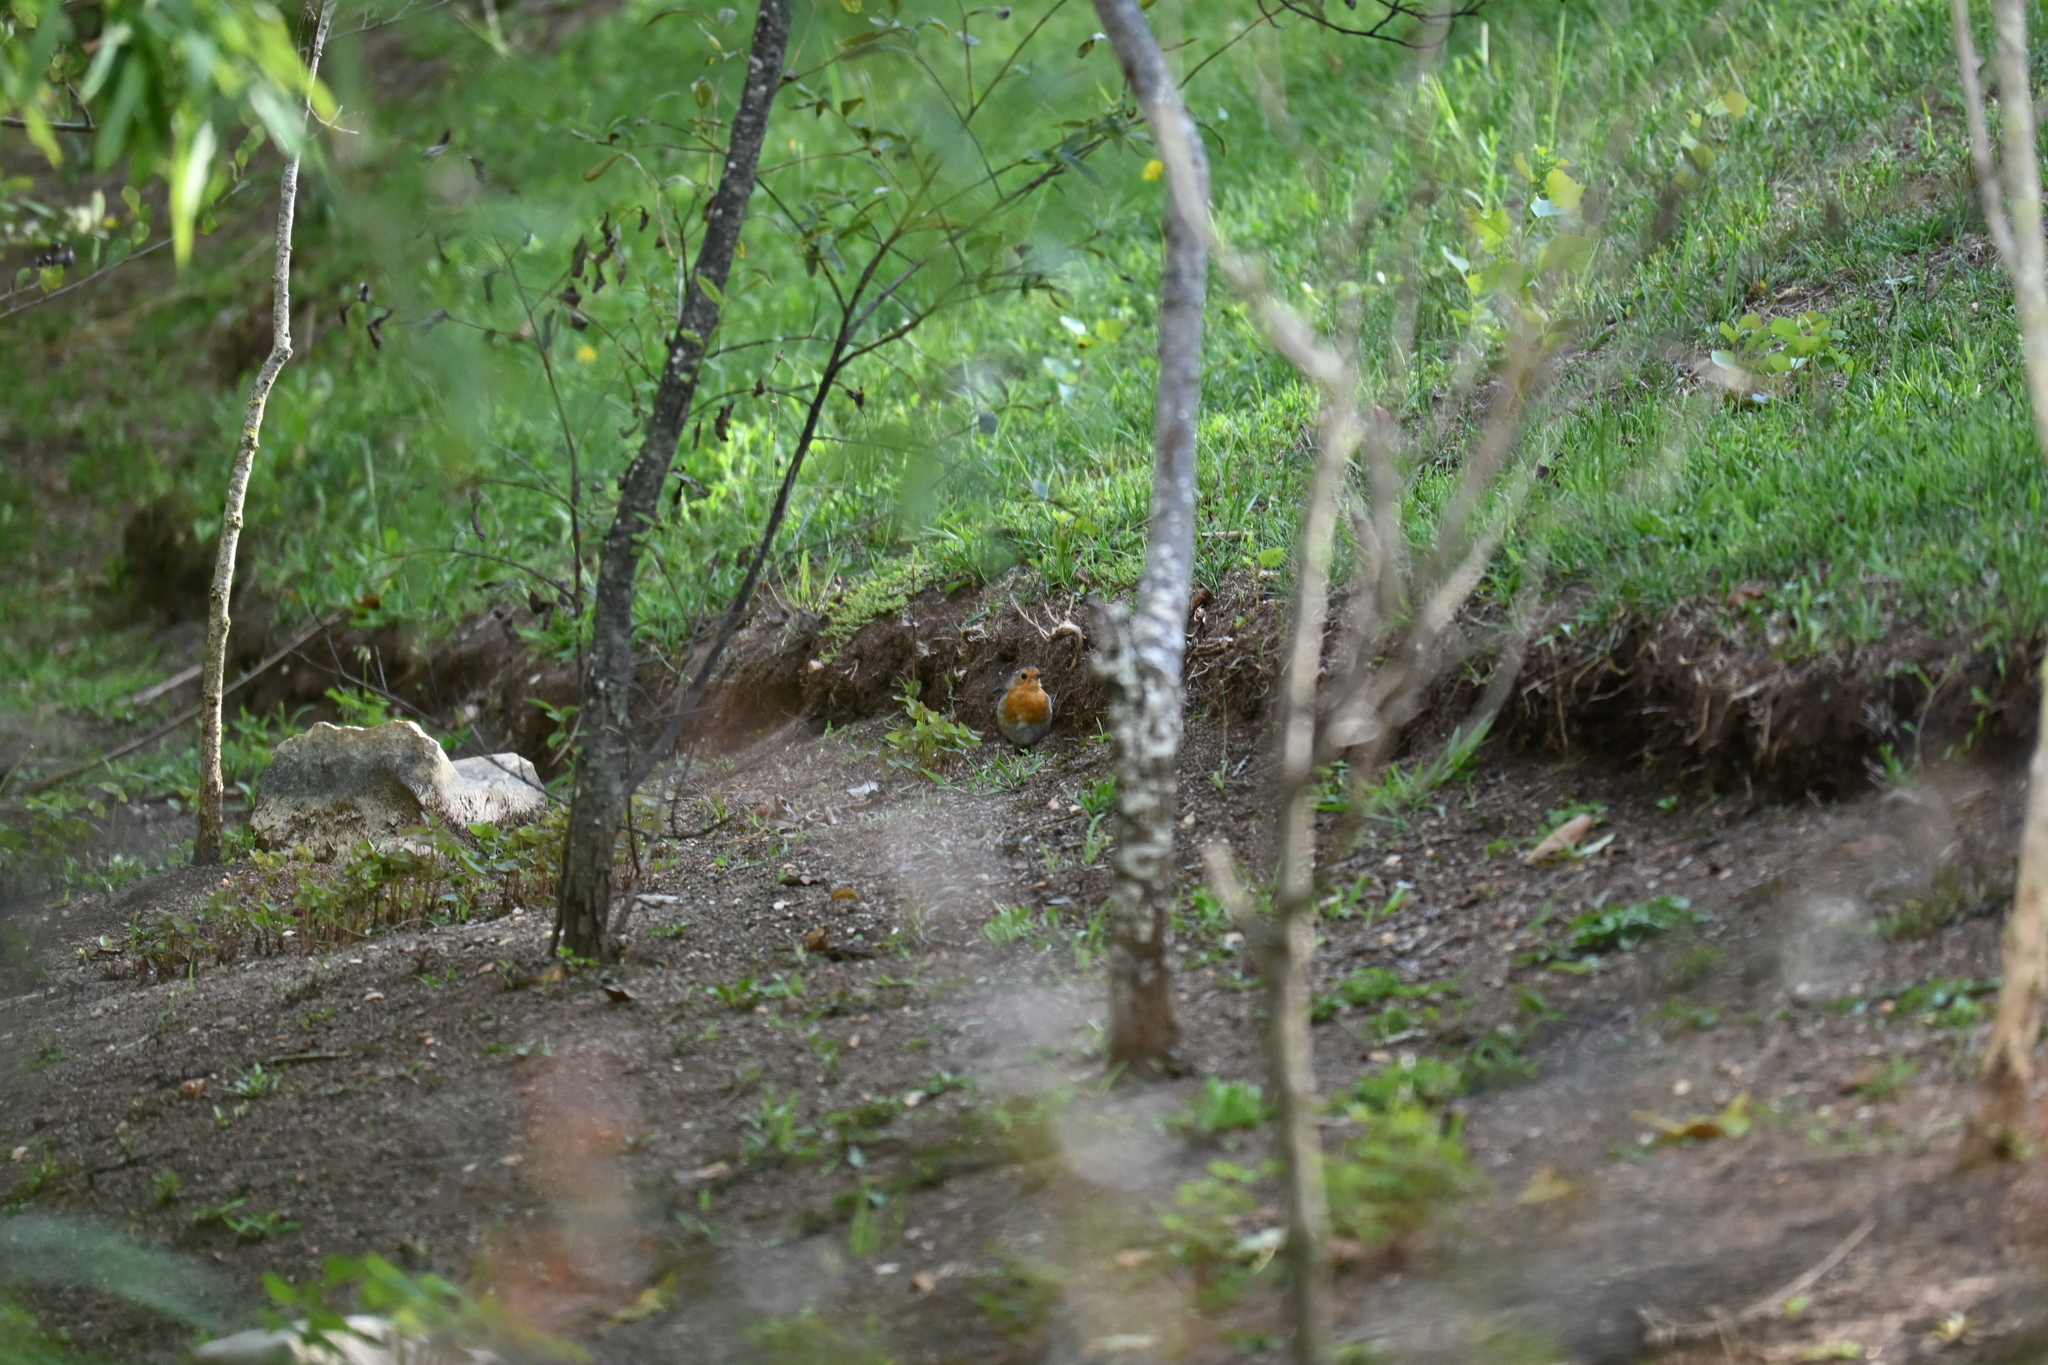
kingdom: Animalia
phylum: Chordata
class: Aves
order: Passeriformes
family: Muscicapidae
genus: Erithacus
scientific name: Erithacus rubecula
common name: European robin
